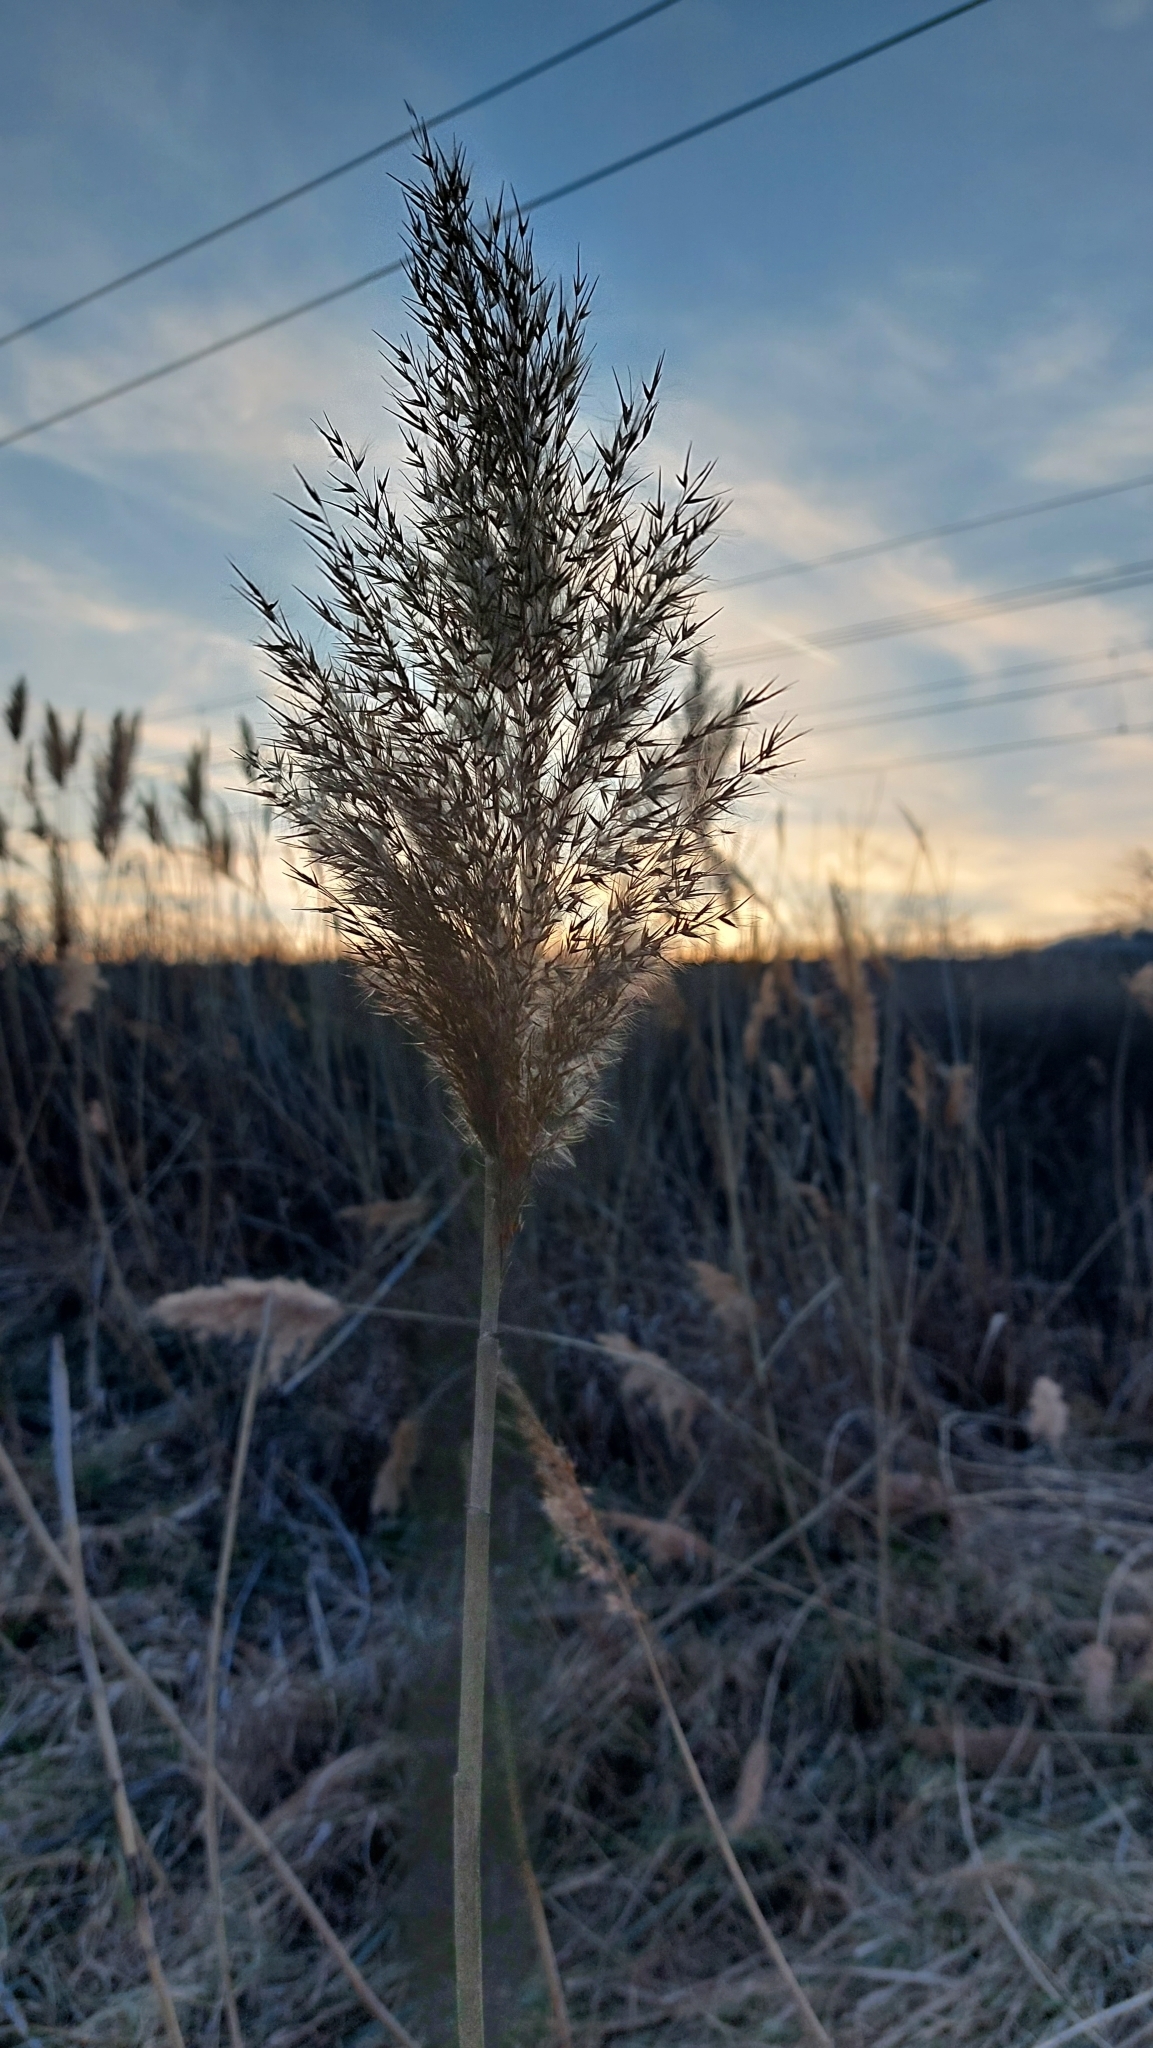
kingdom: Plantae
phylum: Tracheophyta
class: Liliopsida
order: Poales
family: Poaceae
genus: Phragmites
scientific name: Phragmites australis
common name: Common reed
